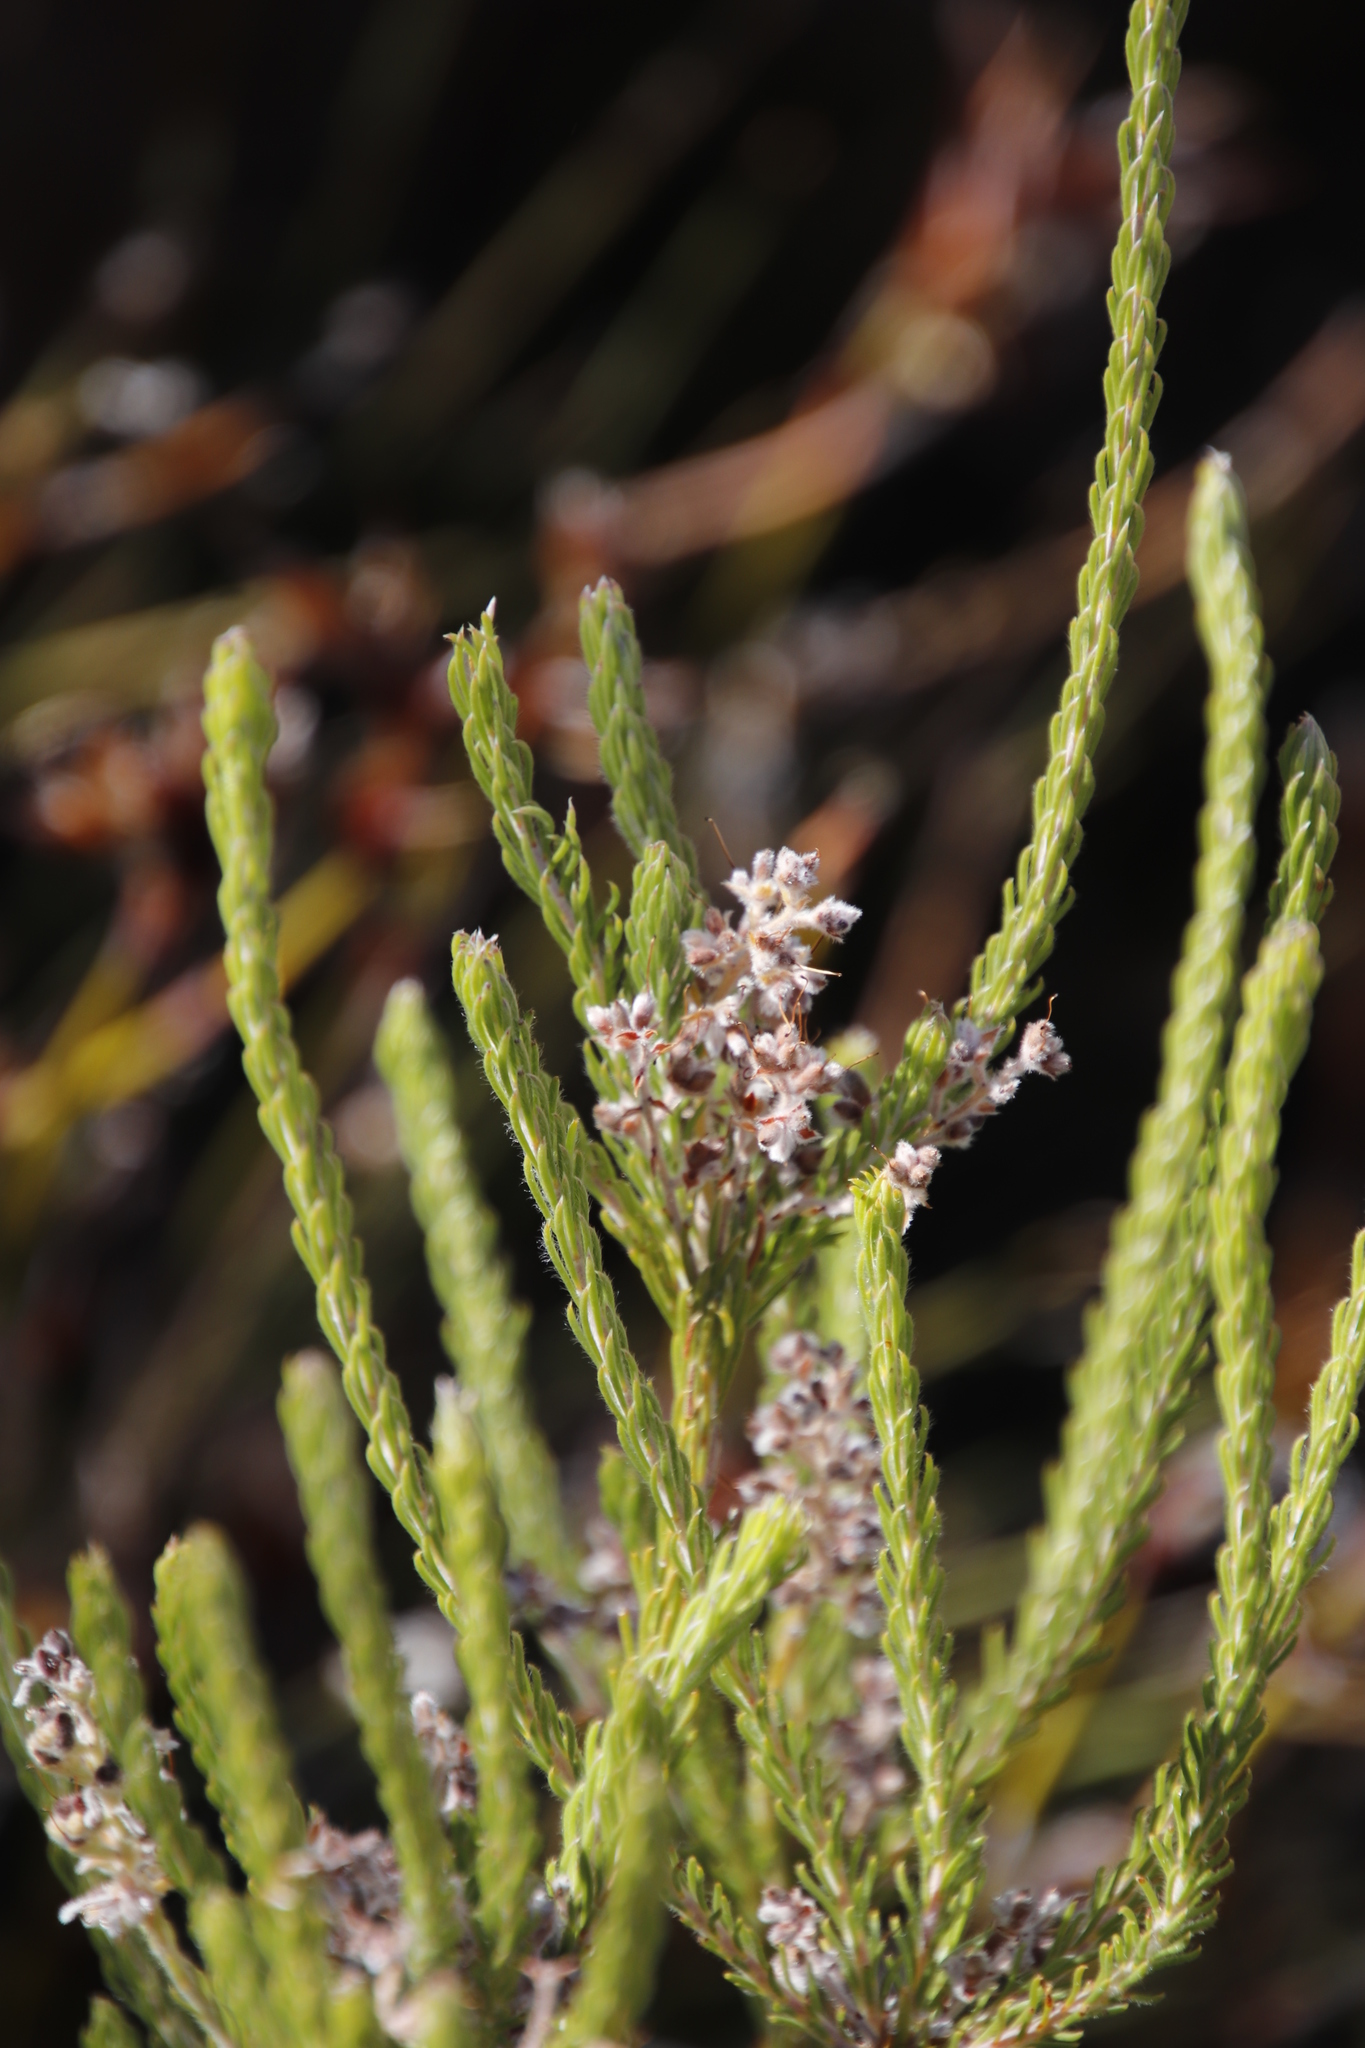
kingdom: Plantae
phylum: Tracheophyta
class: Magnoliopsida
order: Proteales
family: Proteaceae
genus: Spatalla
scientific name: Spatalla incurva
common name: Swan-head spoon
